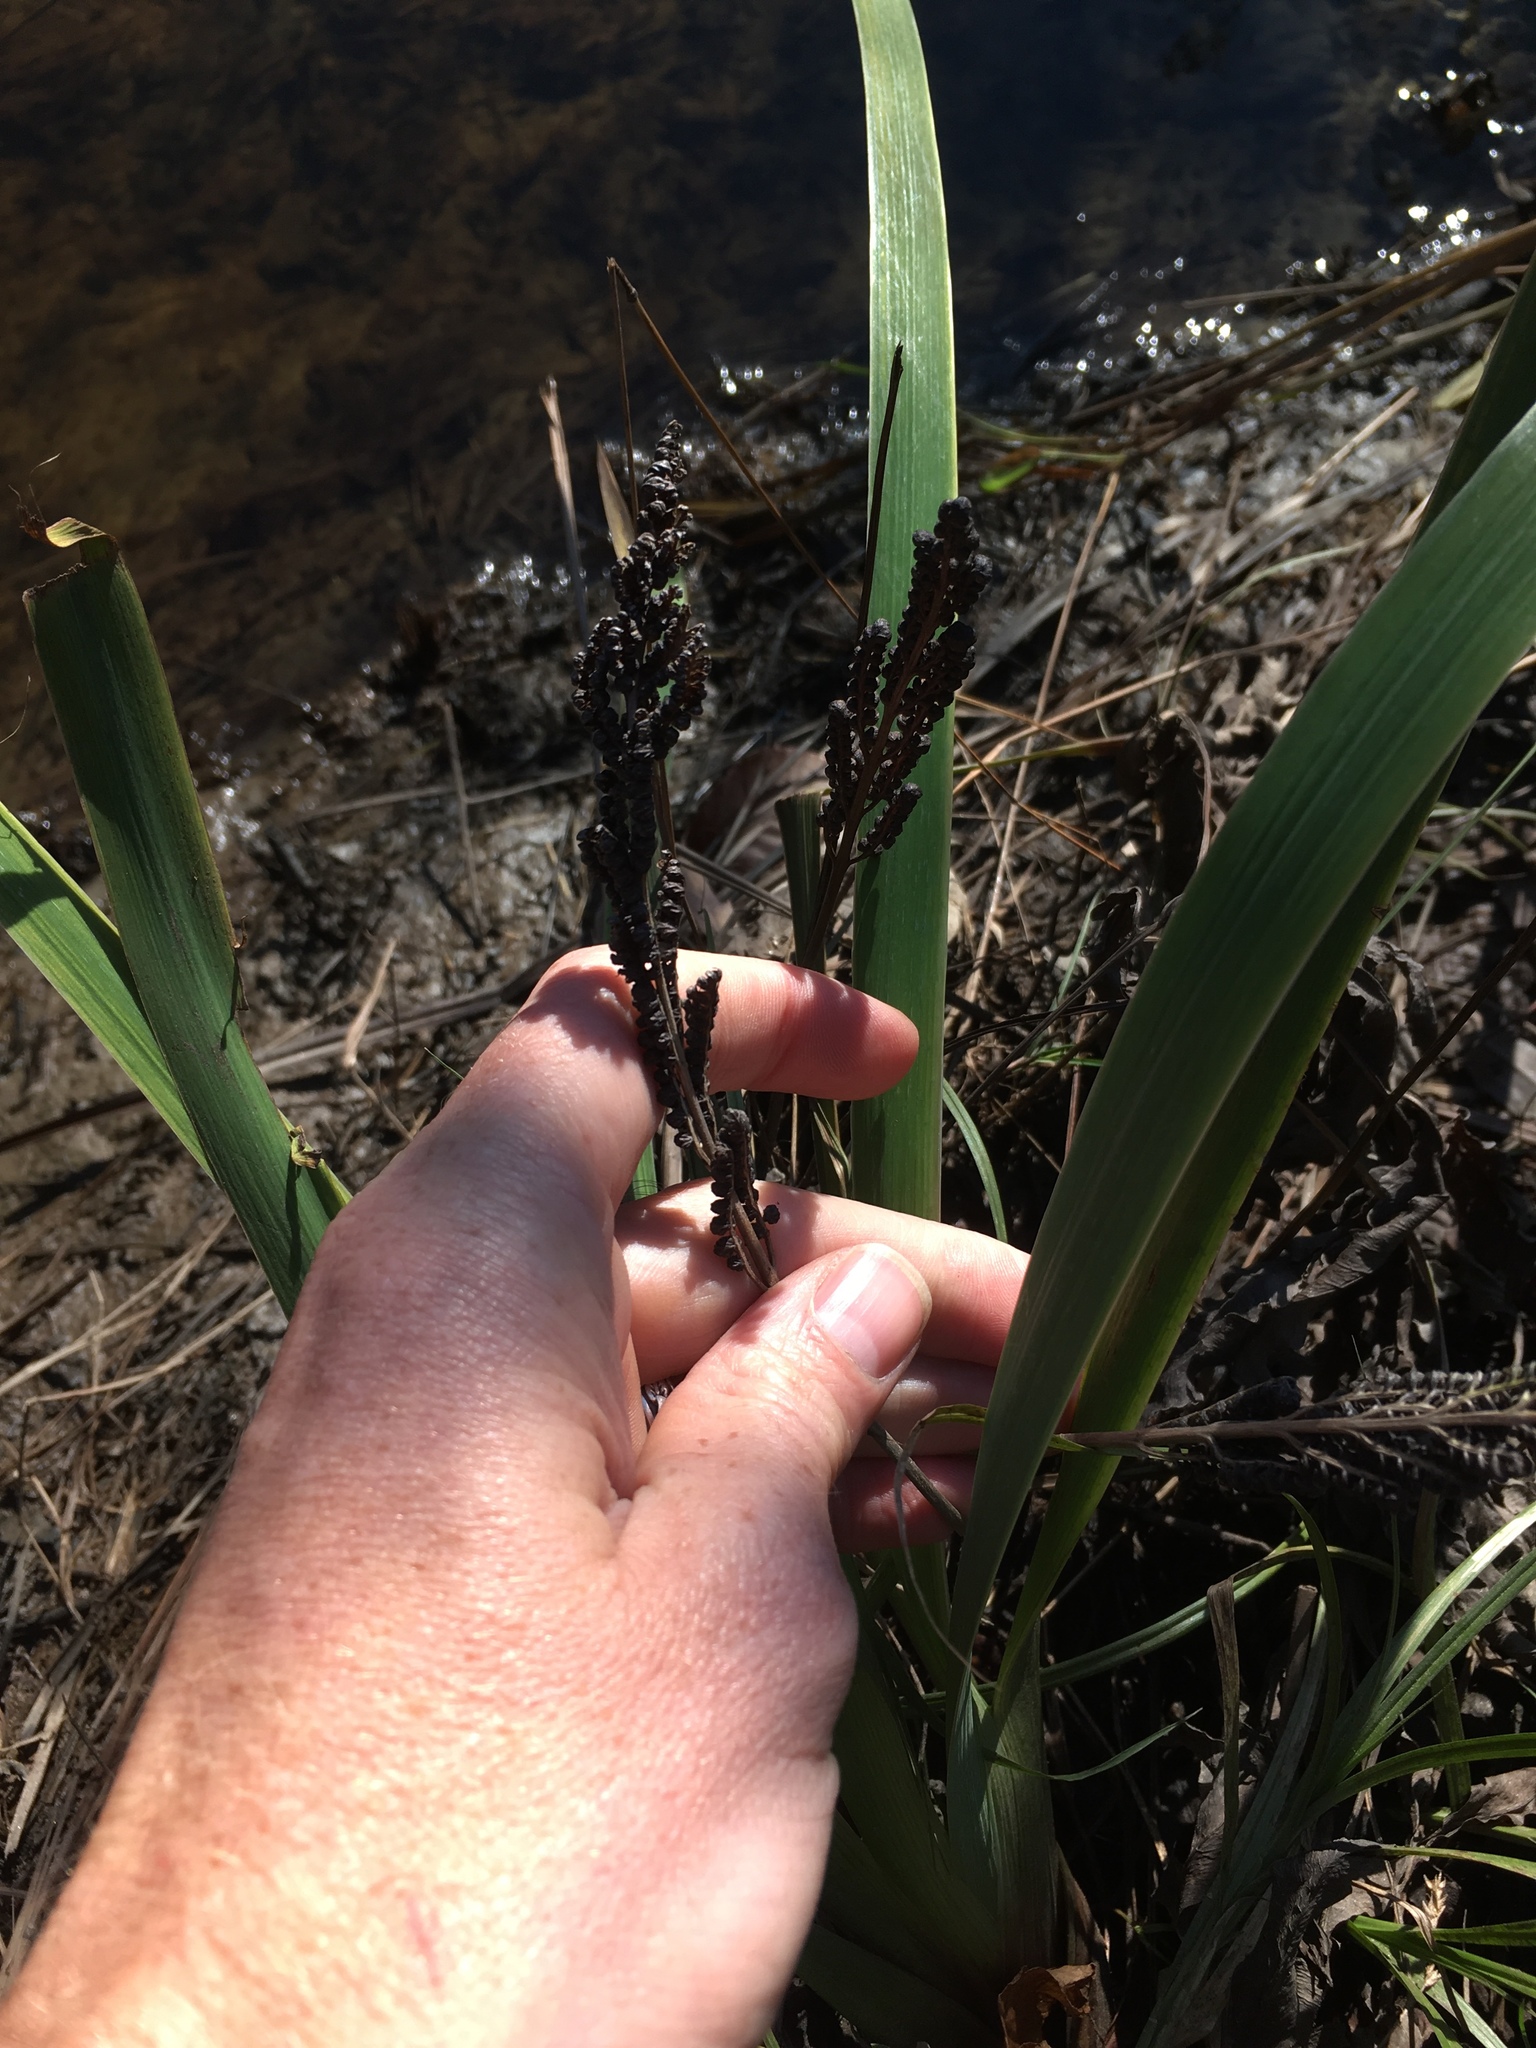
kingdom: Plantae
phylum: Tracheophyta
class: Polypodiopsida
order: Polypodiales
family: Onocleaceae
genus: Onoclea
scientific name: Onoclea sensibilis
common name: Sensitive fern
